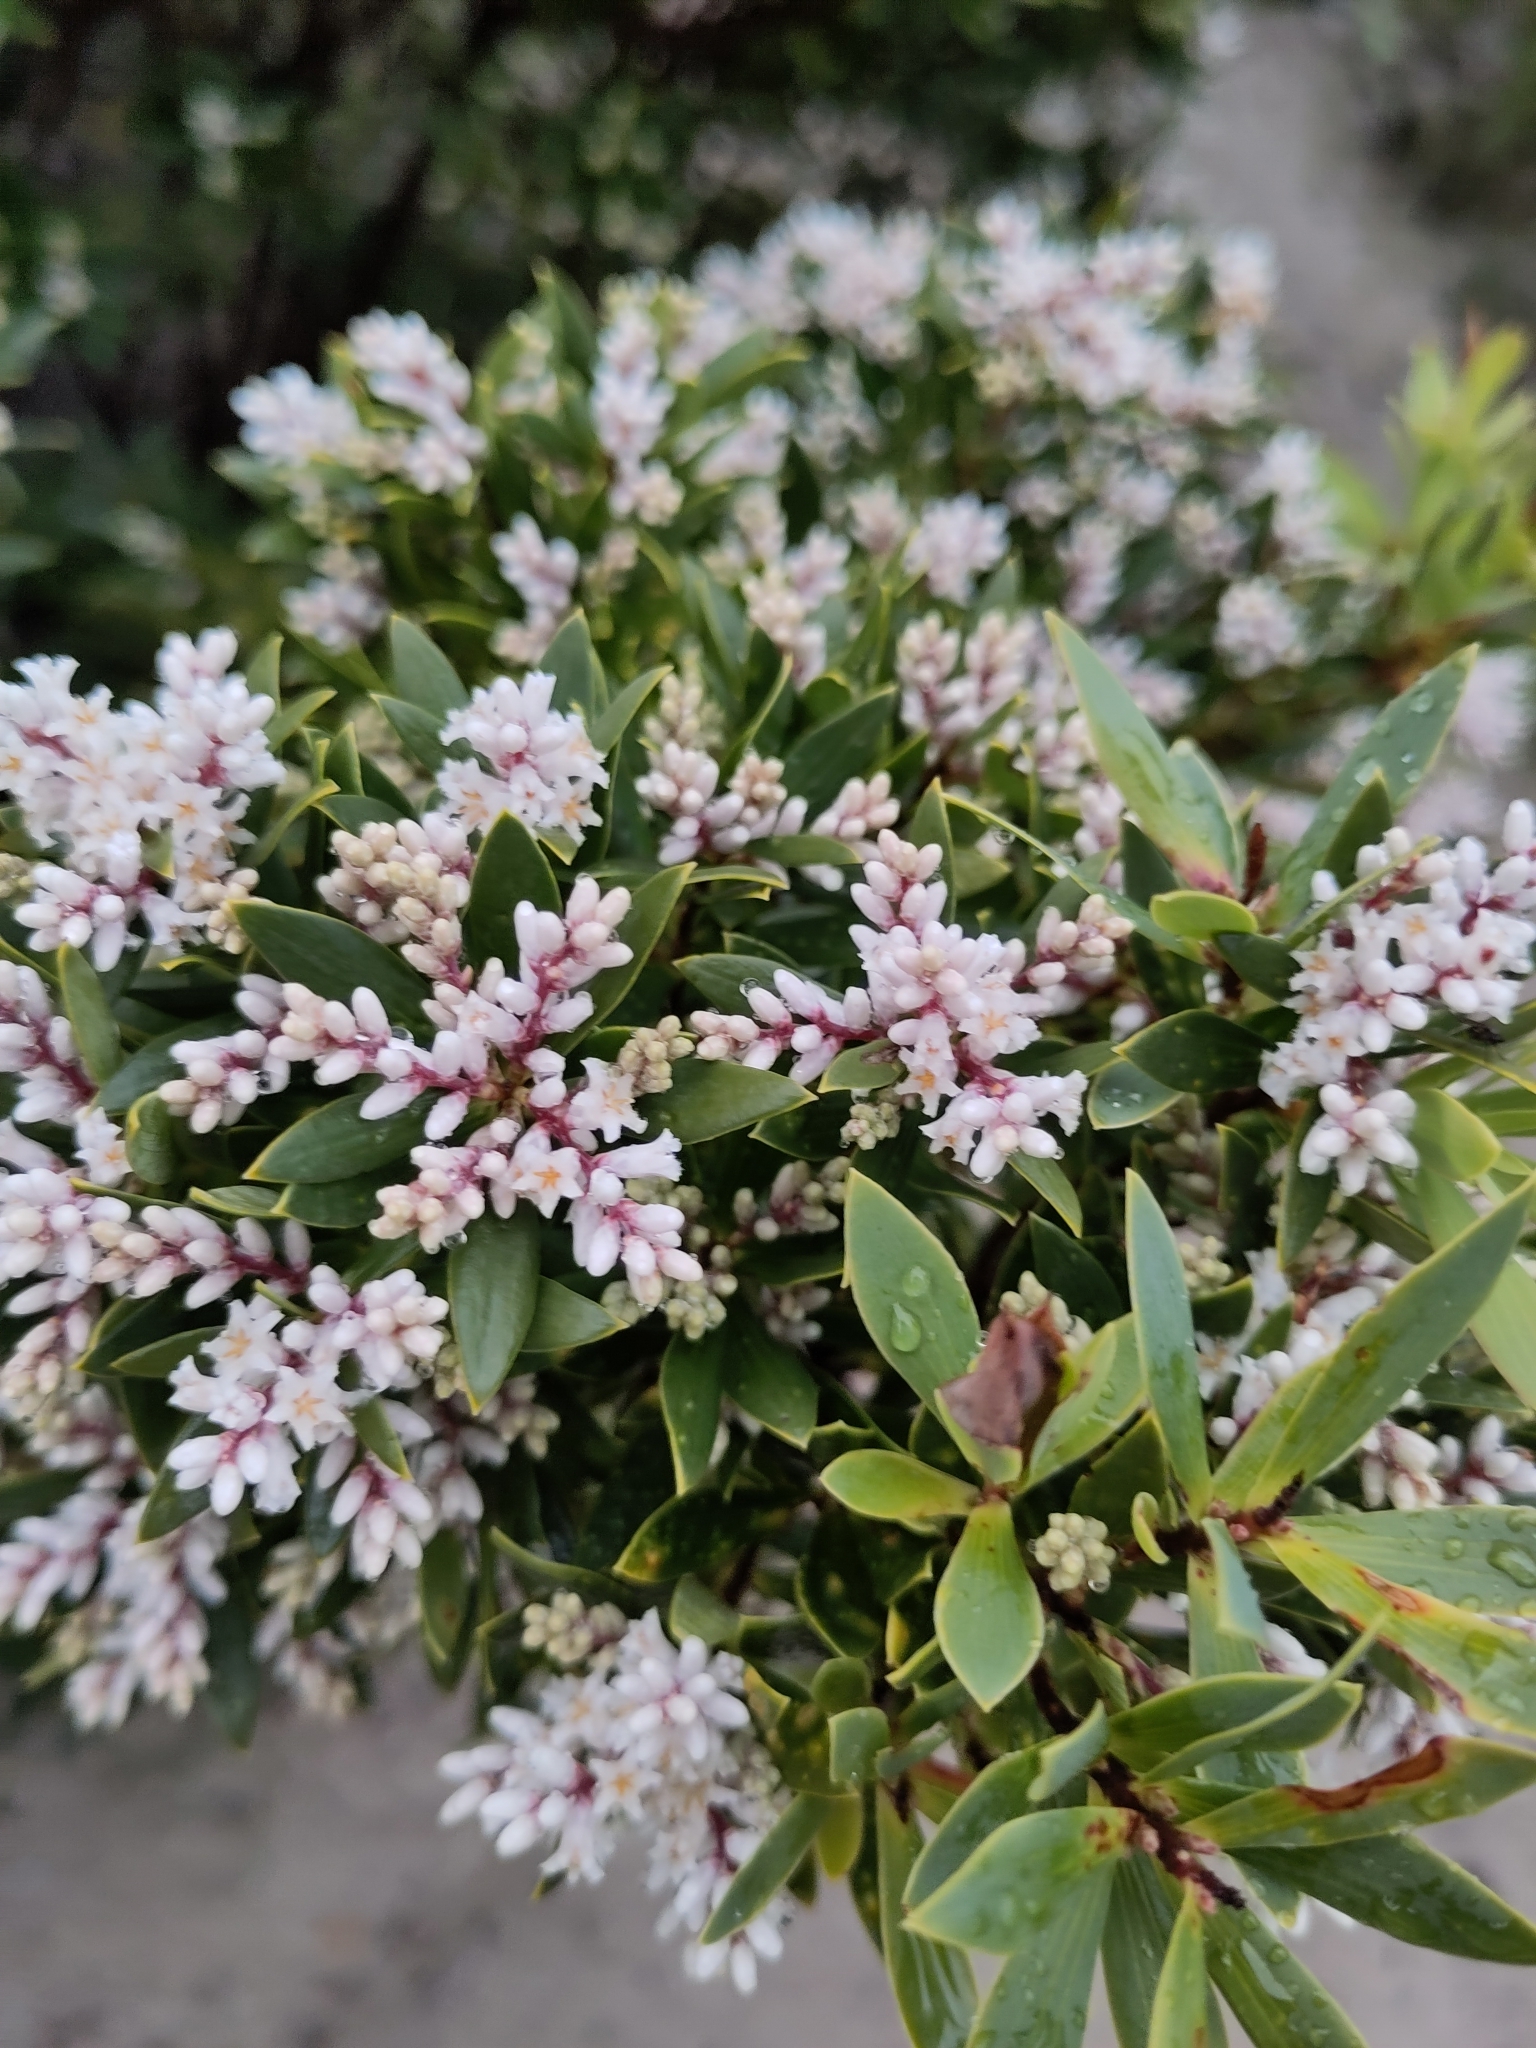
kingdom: Plantae
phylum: Tracheophyta
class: Magnoliopsida
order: Ericales
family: Ericaceae
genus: Leptecophylla
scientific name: Leptecophylla parvifolia
